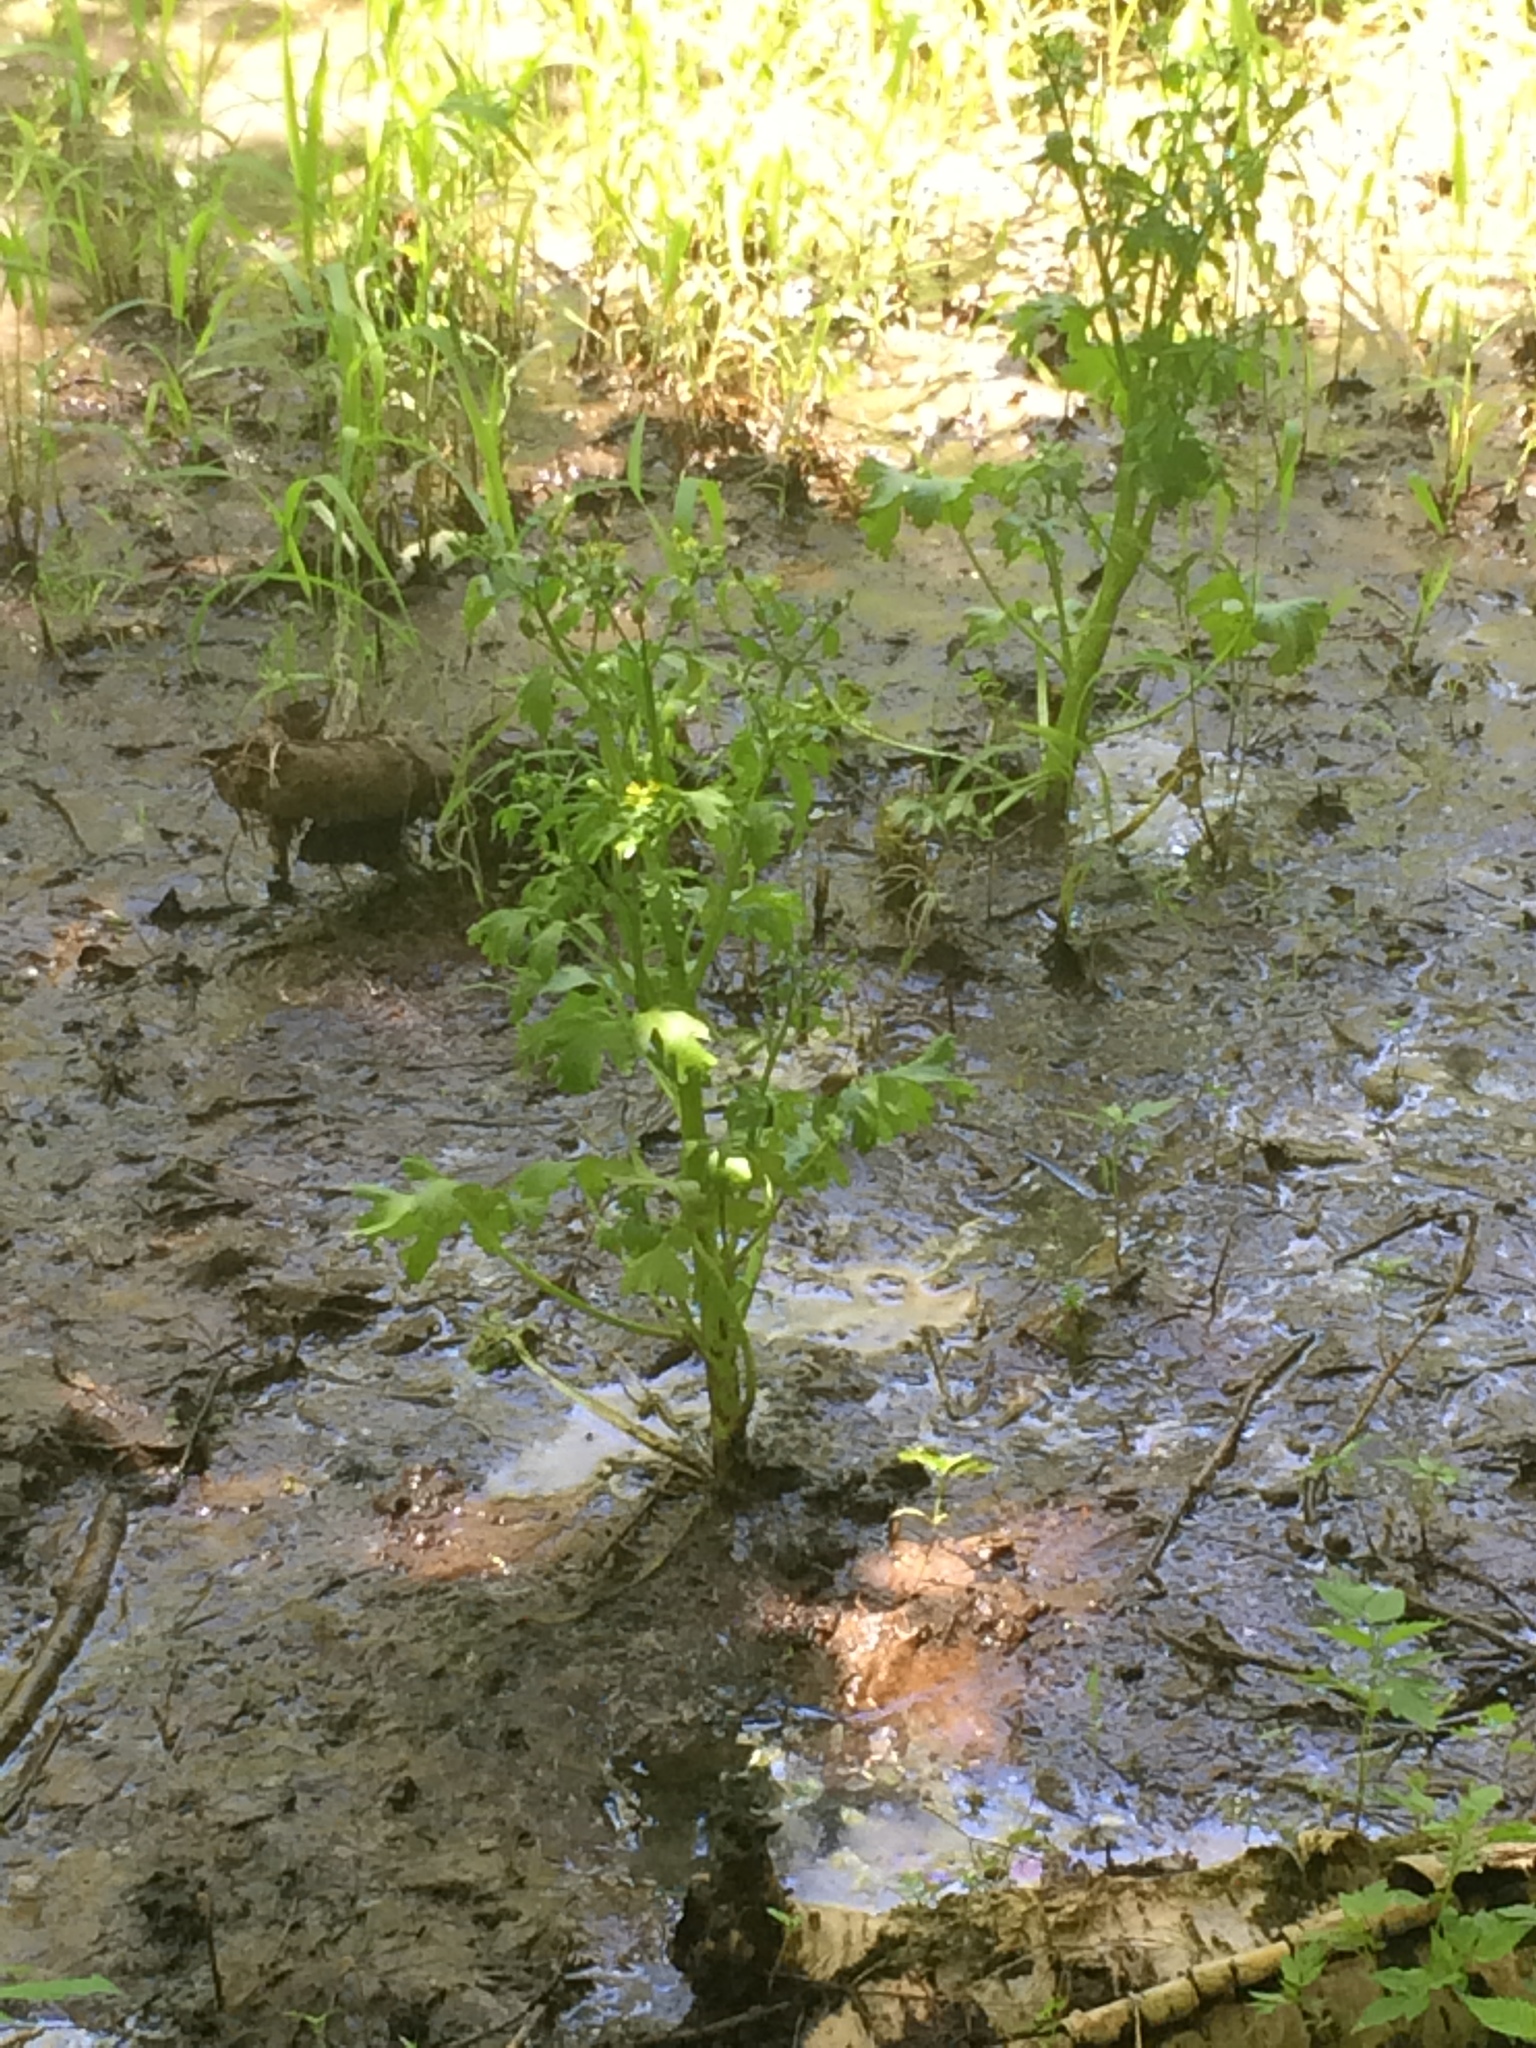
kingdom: Plantae
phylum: Tracheophyta
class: Magnoliopsida
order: Ranunculales
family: Ranunculaceae
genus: Ranunculus
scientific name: Ranunculus sceleratus
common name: Celery-leaved buttercup
